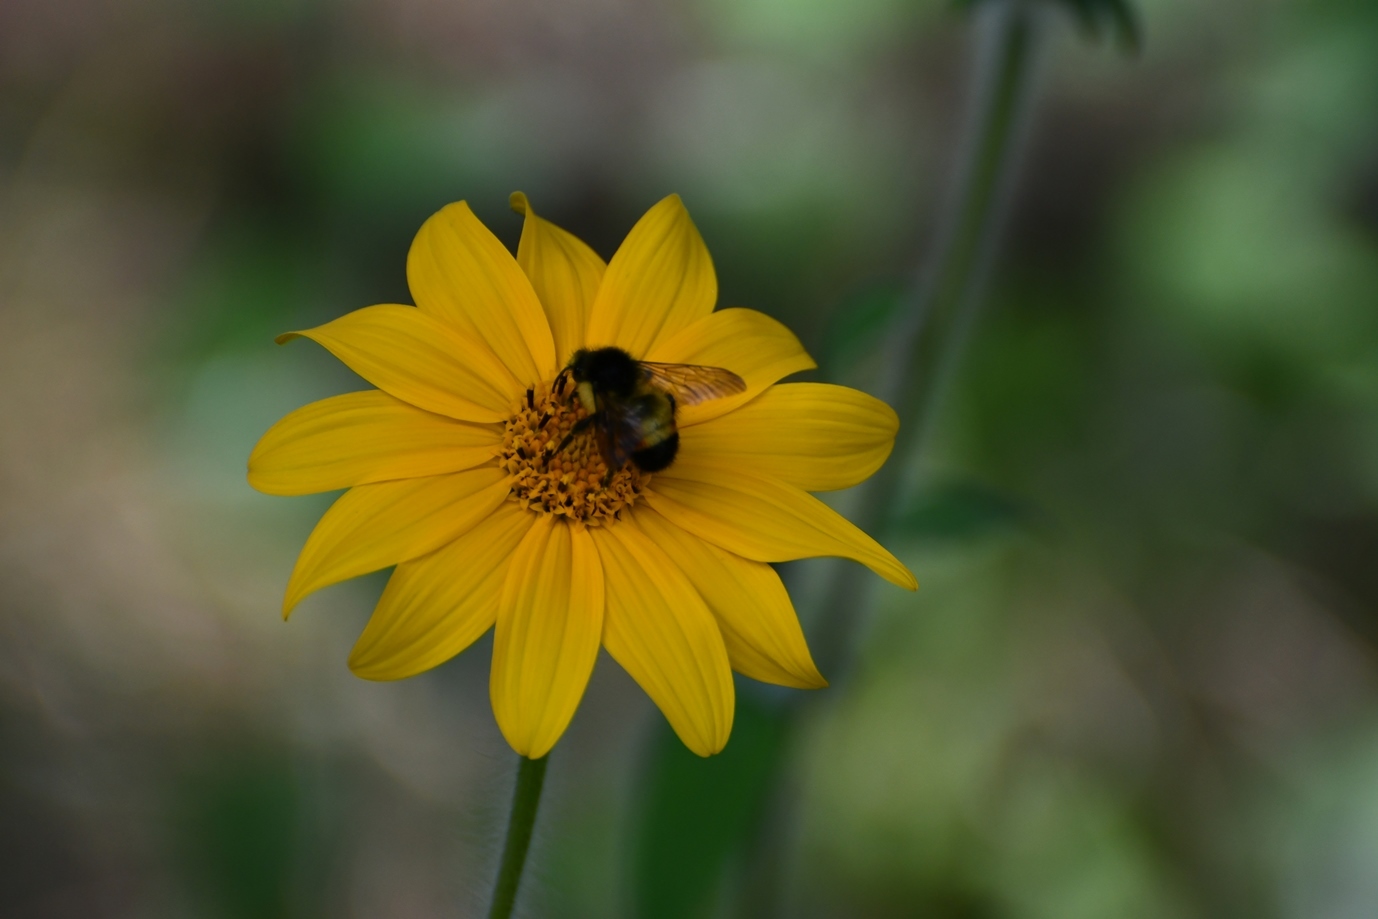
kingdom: Animalia
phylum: Arthropoda
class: Insecta
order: Hymenoptera
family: Apidae
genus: Bombus
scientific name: Bombus ephippiatus
